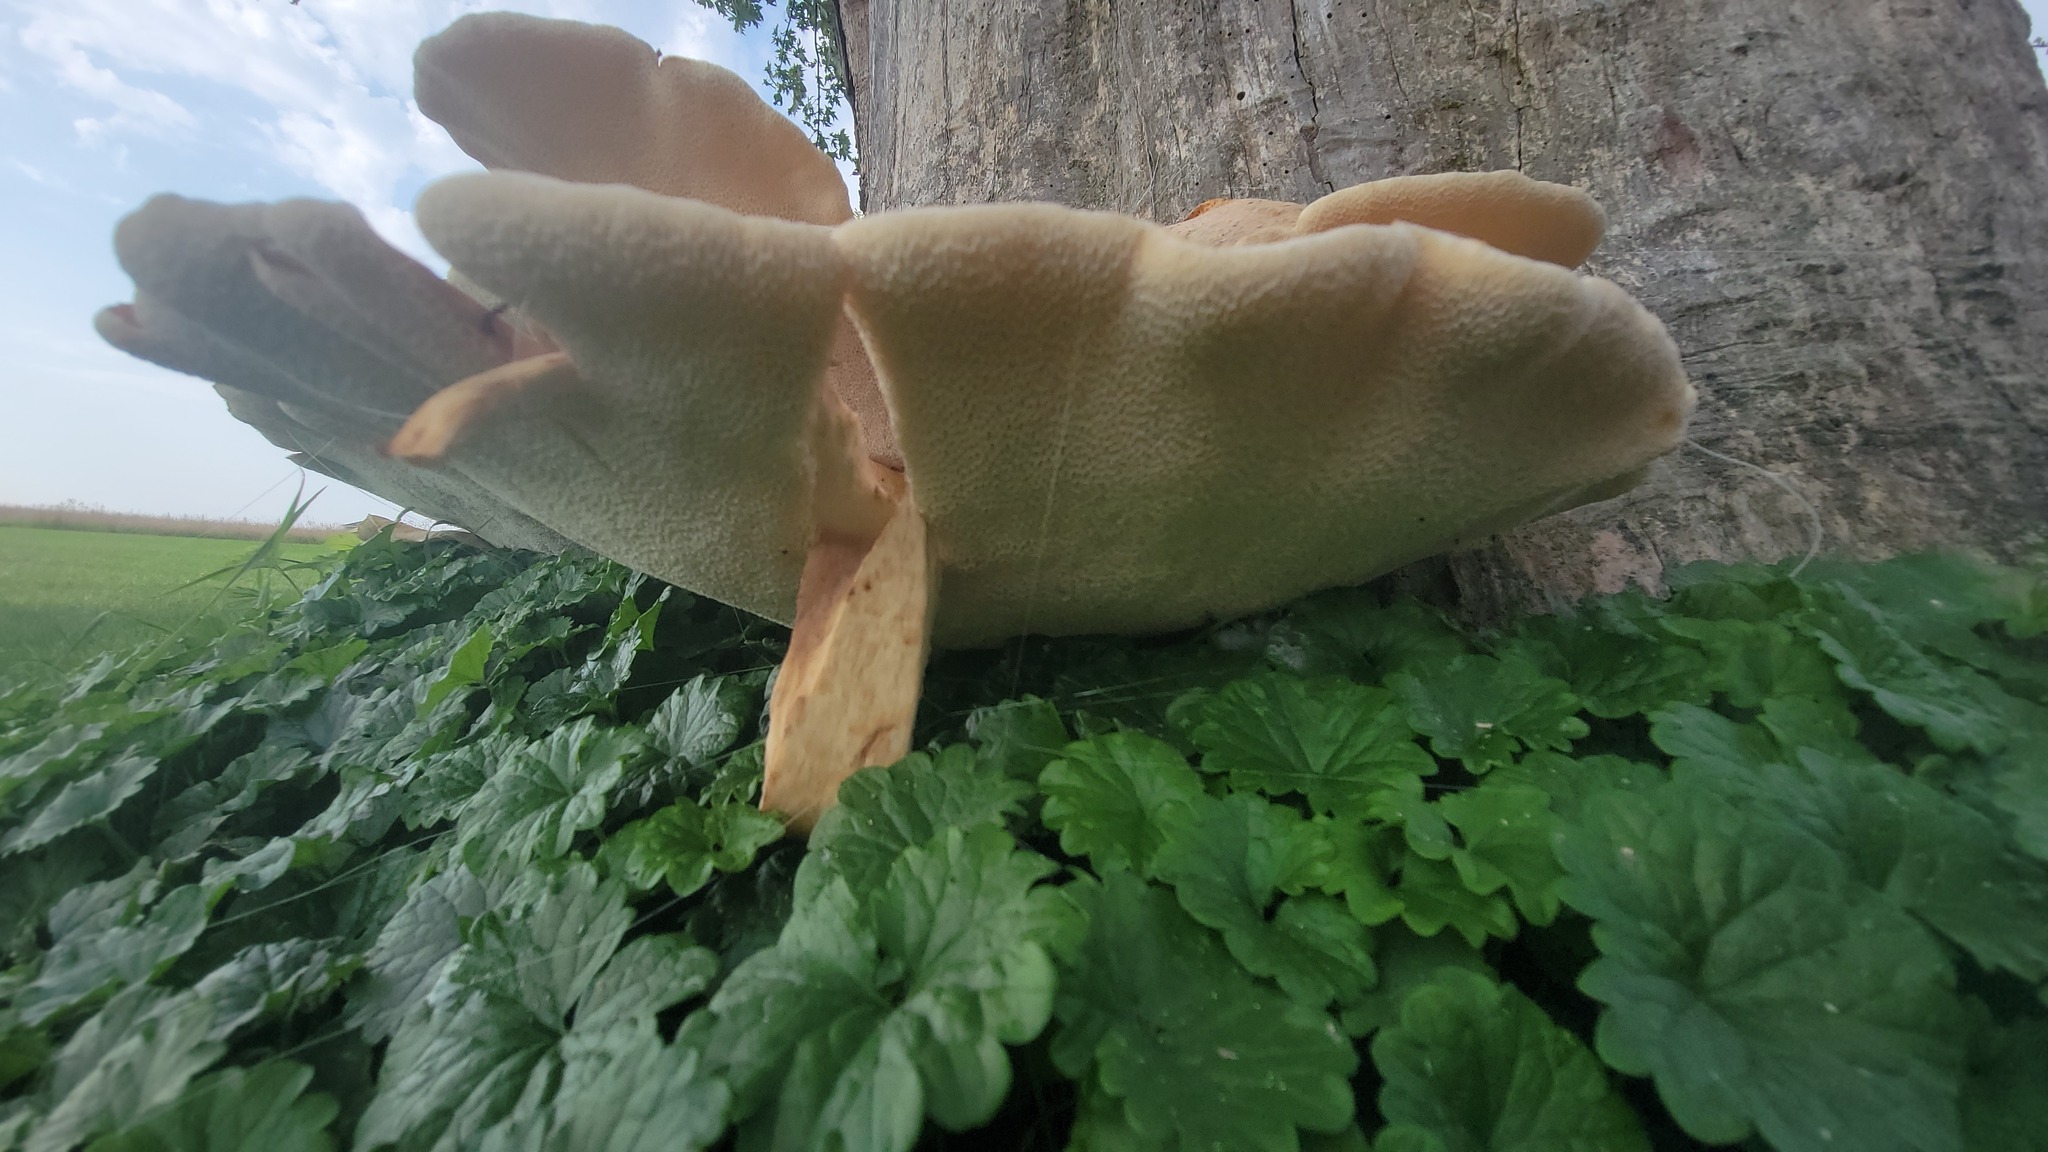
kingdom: Fungi
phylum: Basidiomycota
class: Agaricomycetes
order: Polyporales
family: Polyporaceae
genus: Cerioporus
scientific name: Cerioporus squamosus
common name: Dryad's saddle
